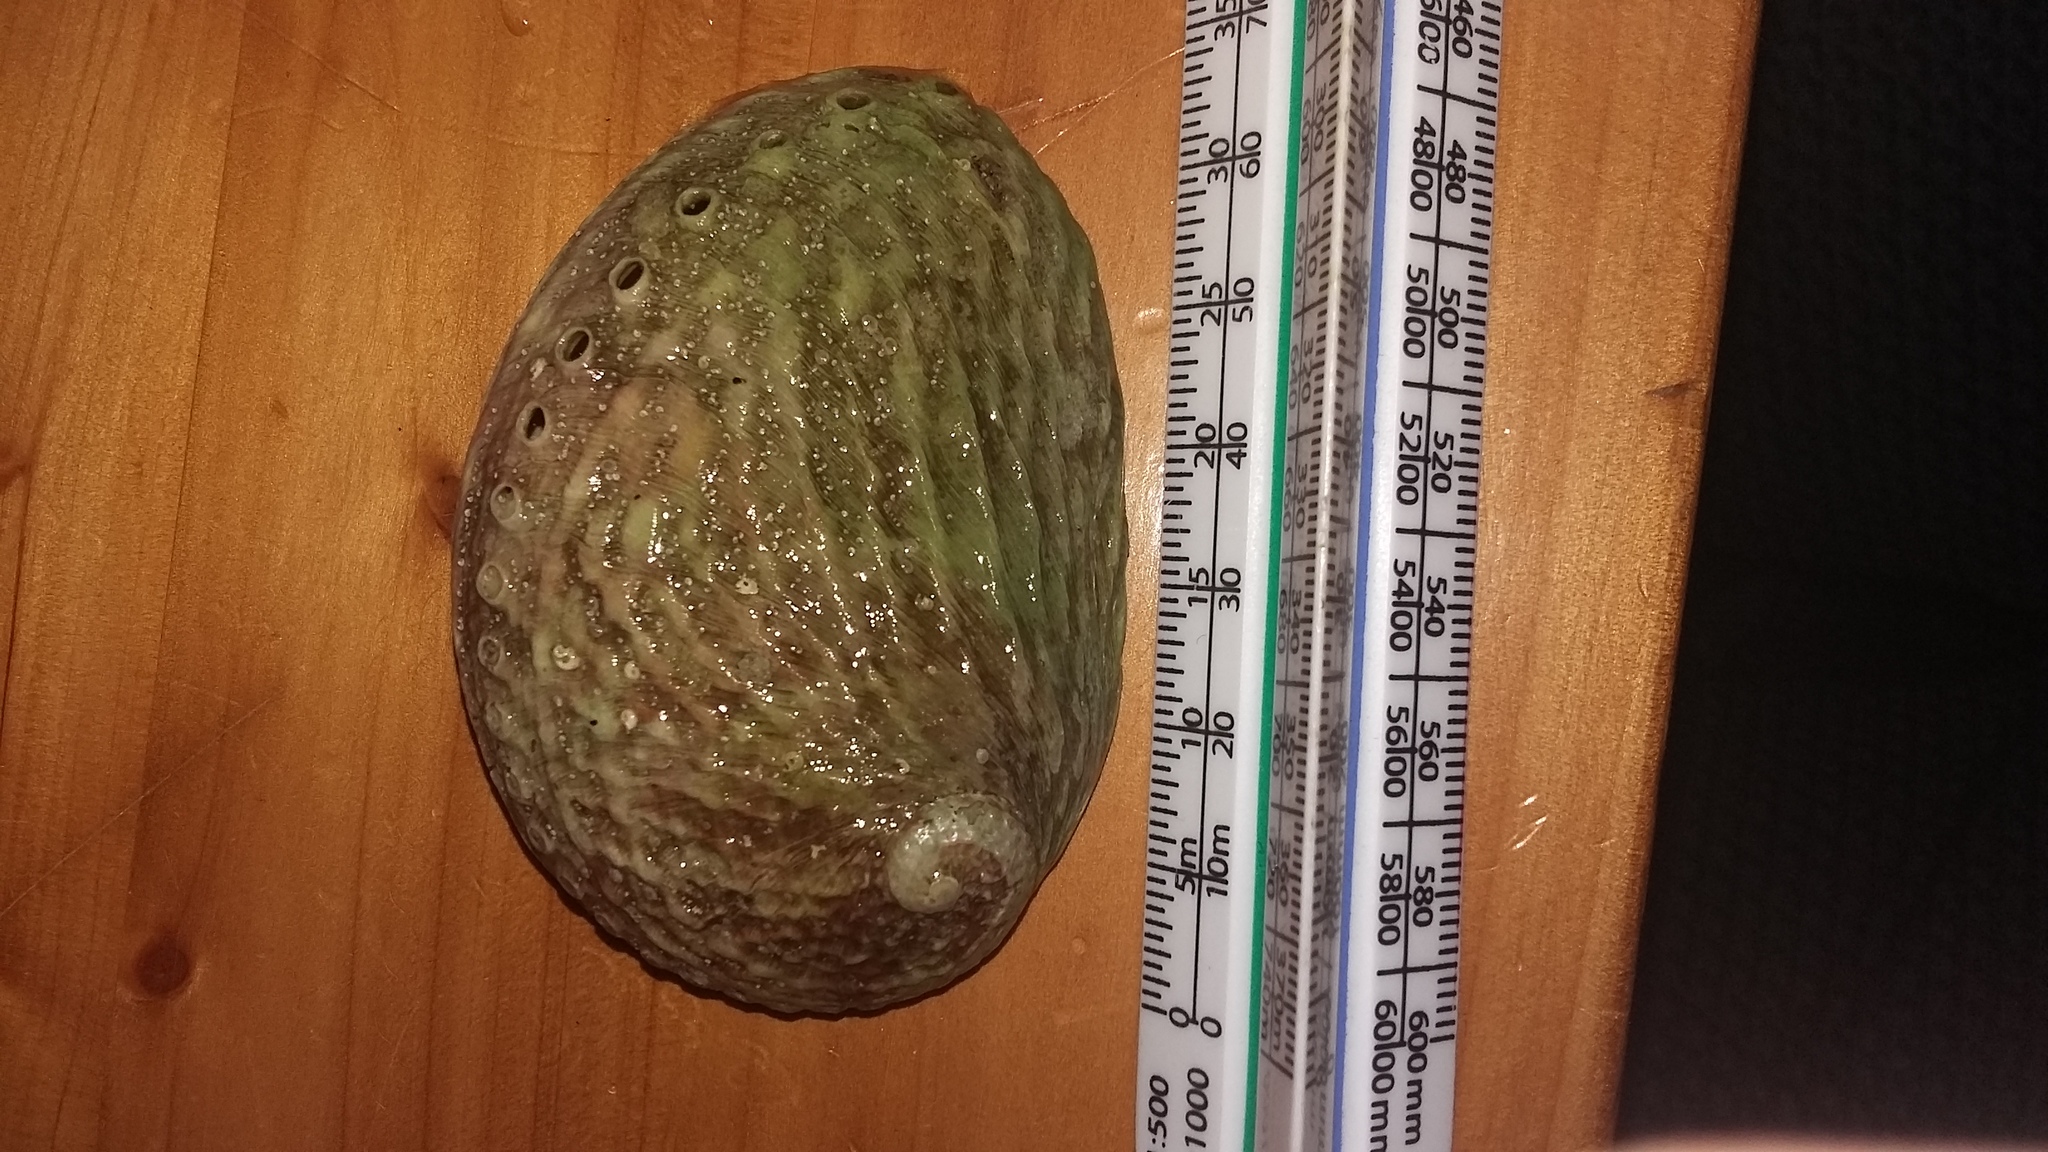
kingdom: Animalia
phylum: Mollusca
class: Gastropoda
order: Lepetellida
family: Haliotidae
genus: Haliotis
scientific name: Haliotis australis
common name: Silver abalone
